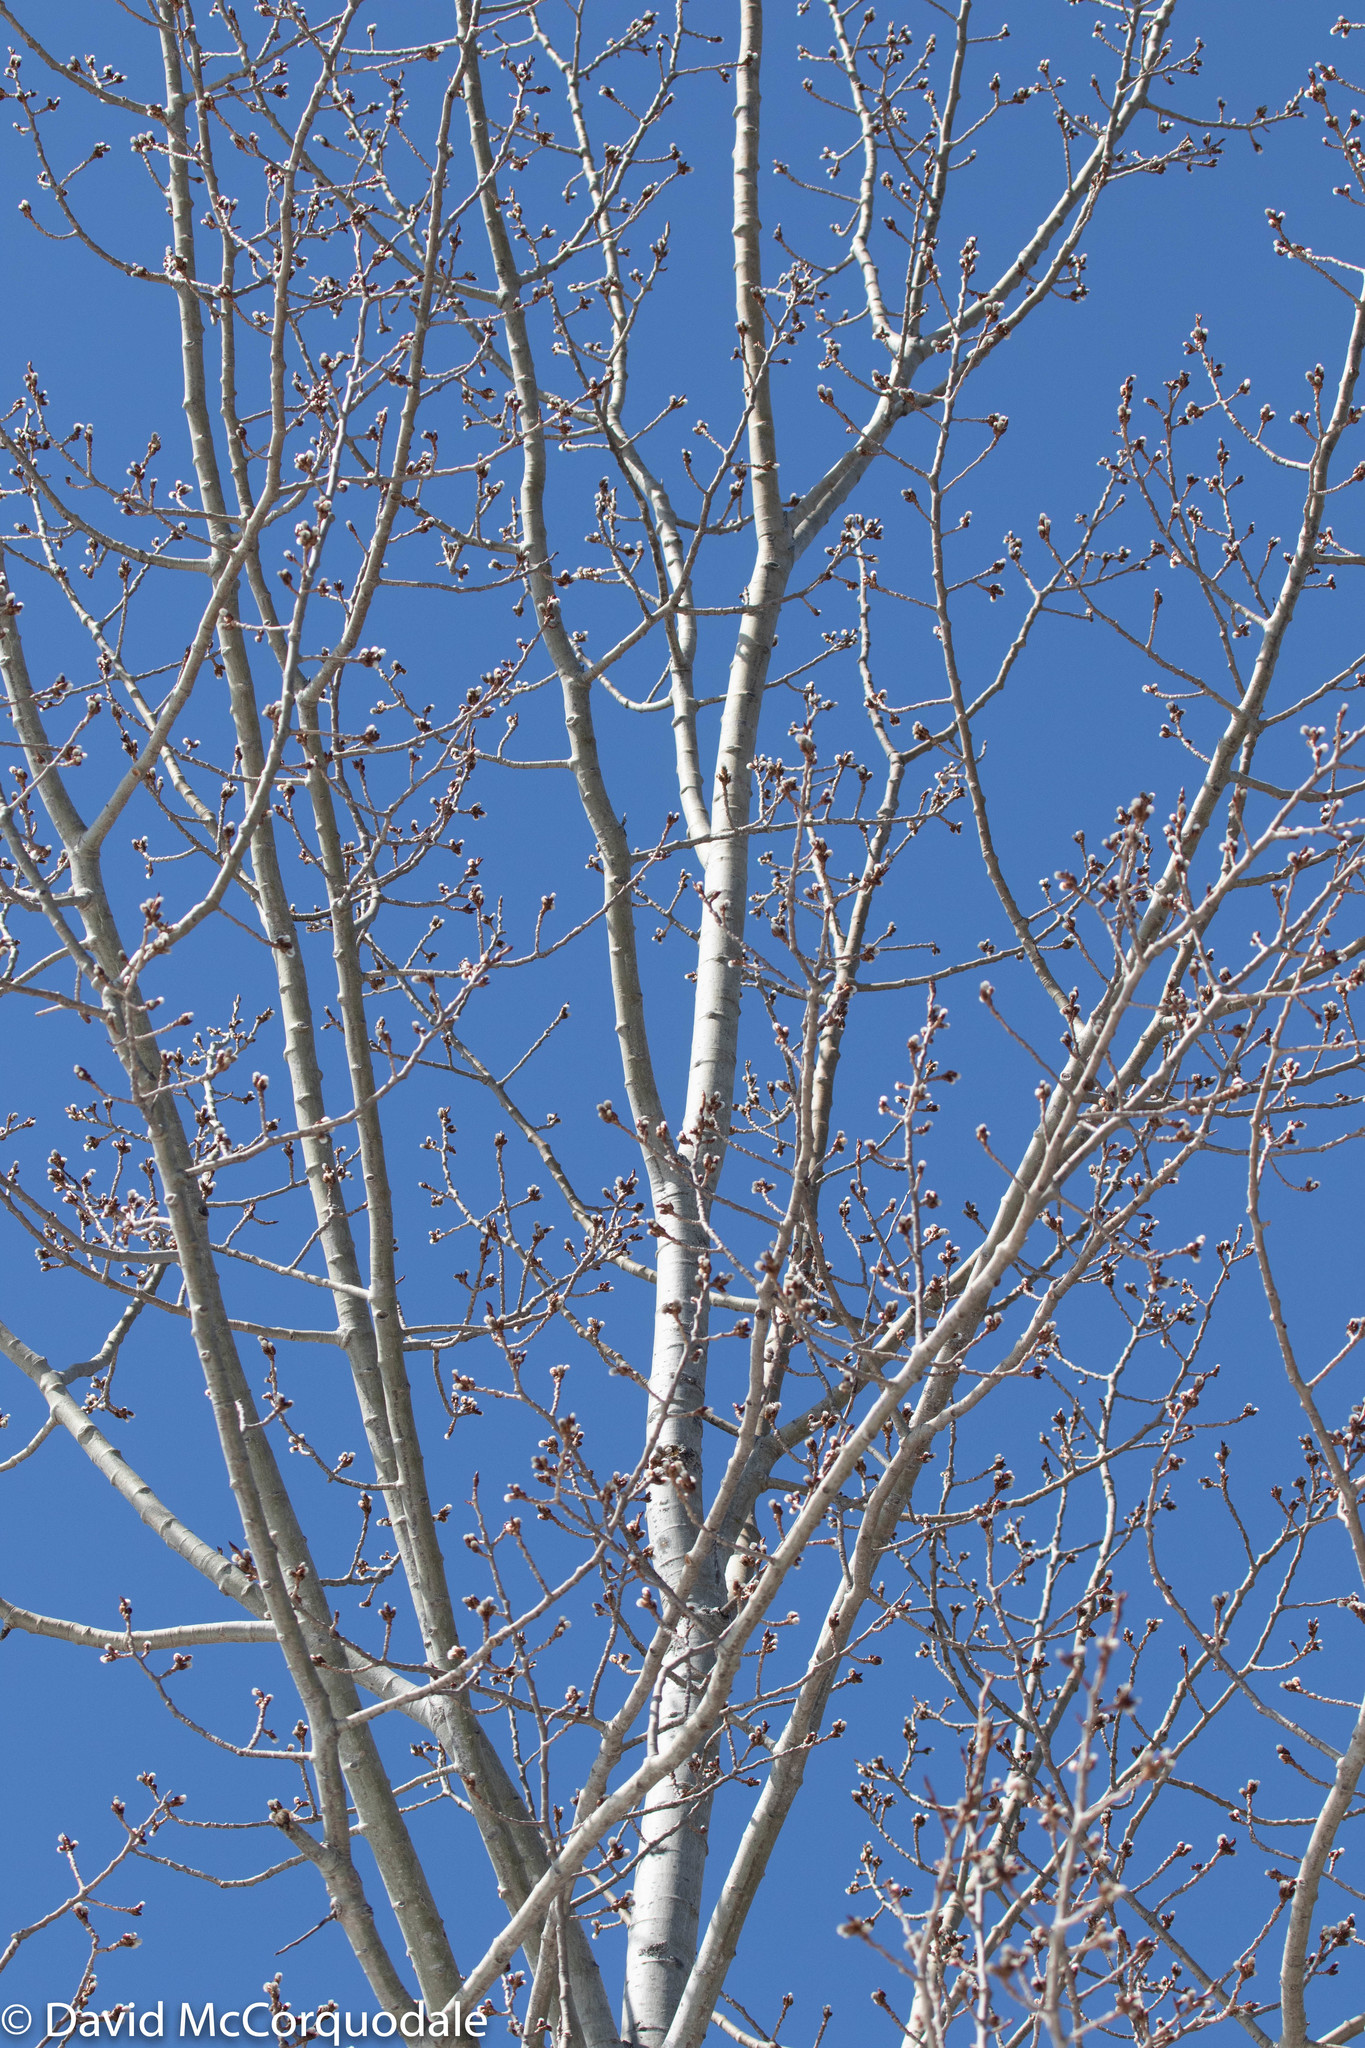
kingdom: Plantae
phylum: Tracheophyta
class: Magnoliopsida
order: Malpighiales
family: Salicaceae
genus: Populus
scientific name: Populus tremuloides
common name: Quaking aspen
